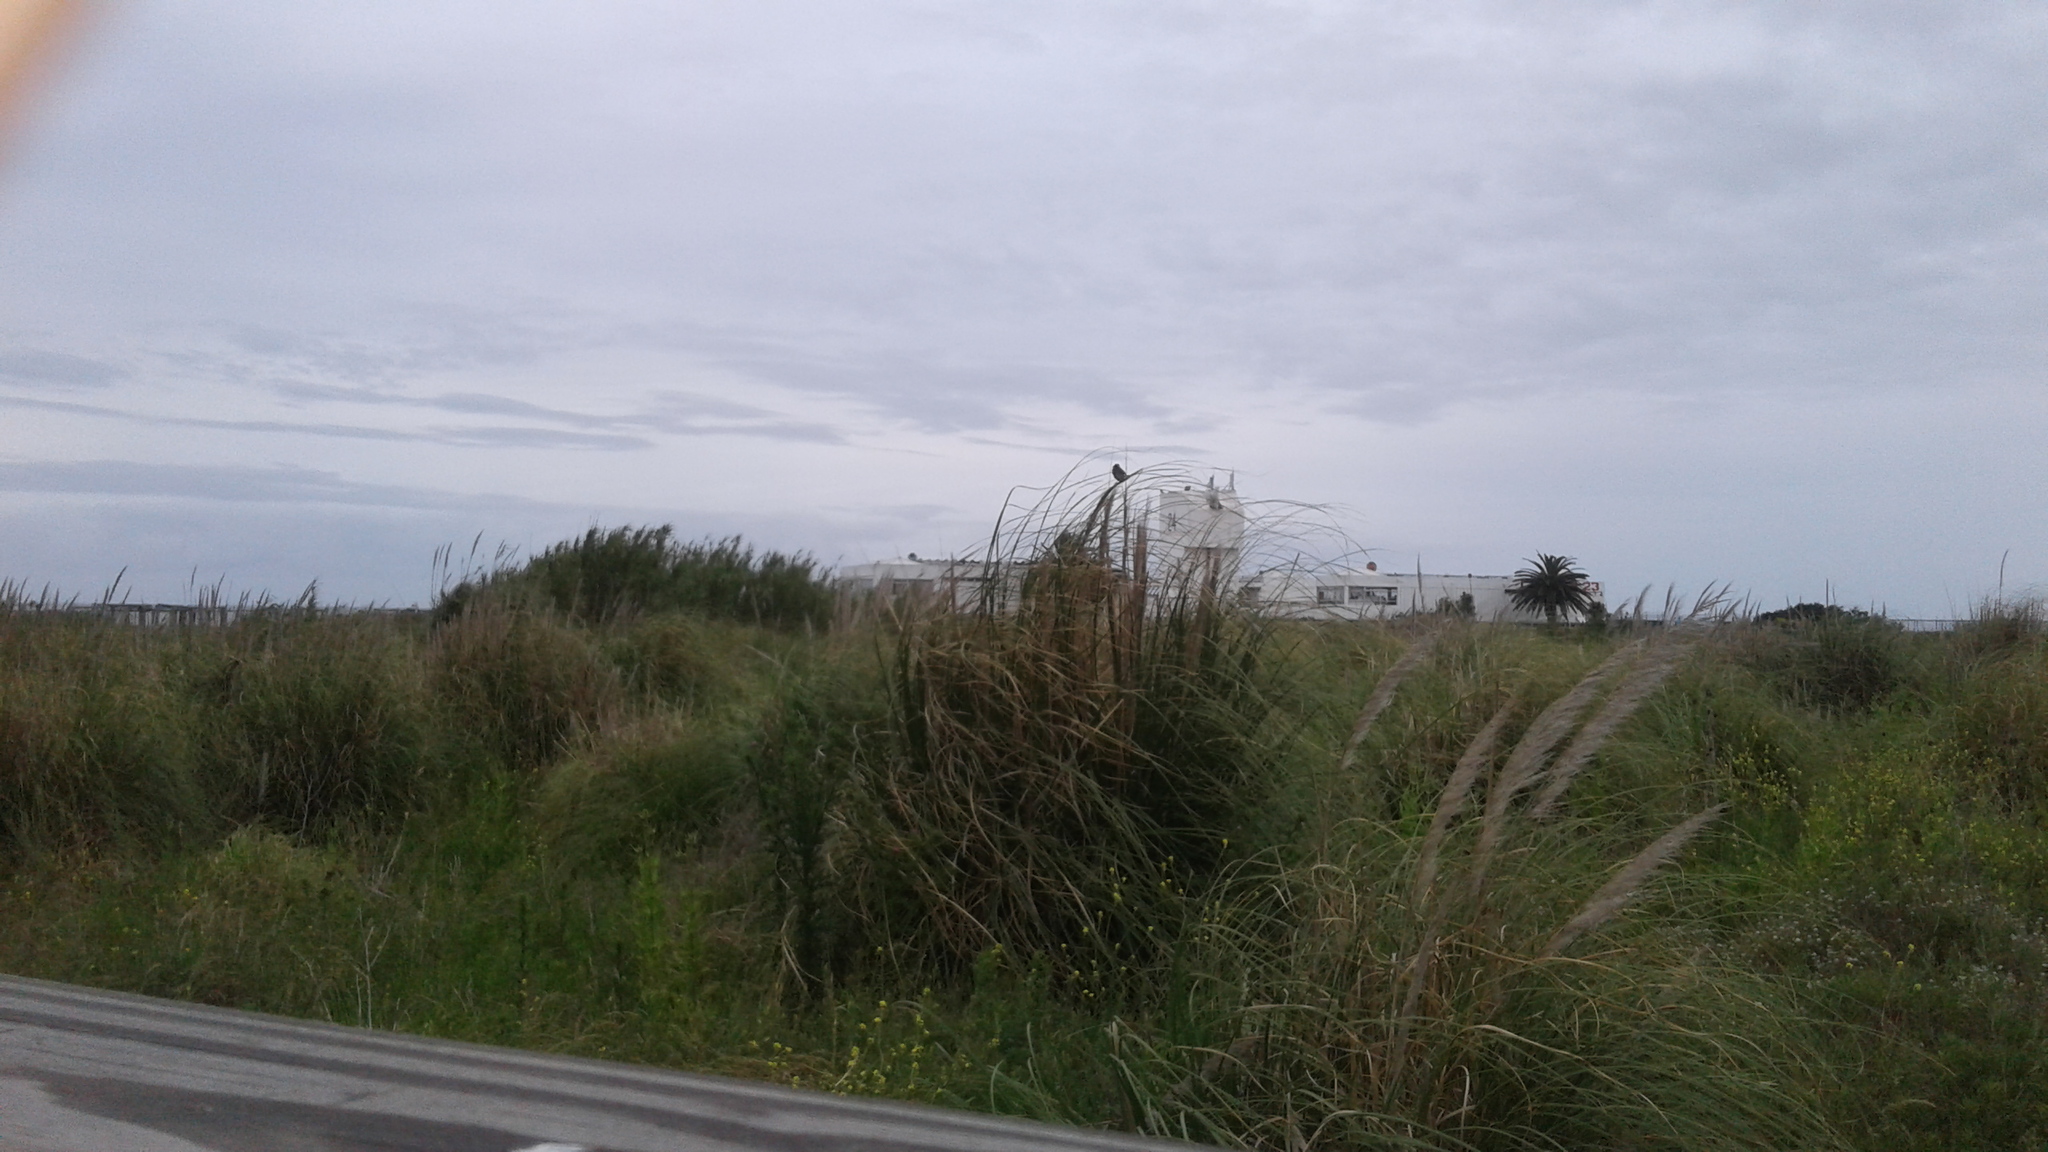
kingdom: Plantae
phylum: Tracheophyta
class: Liliopsida
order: Poales
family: Poaceae
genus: Cortaderia
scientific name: Cortaderia selloana
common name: Uruguayan pampas grass
